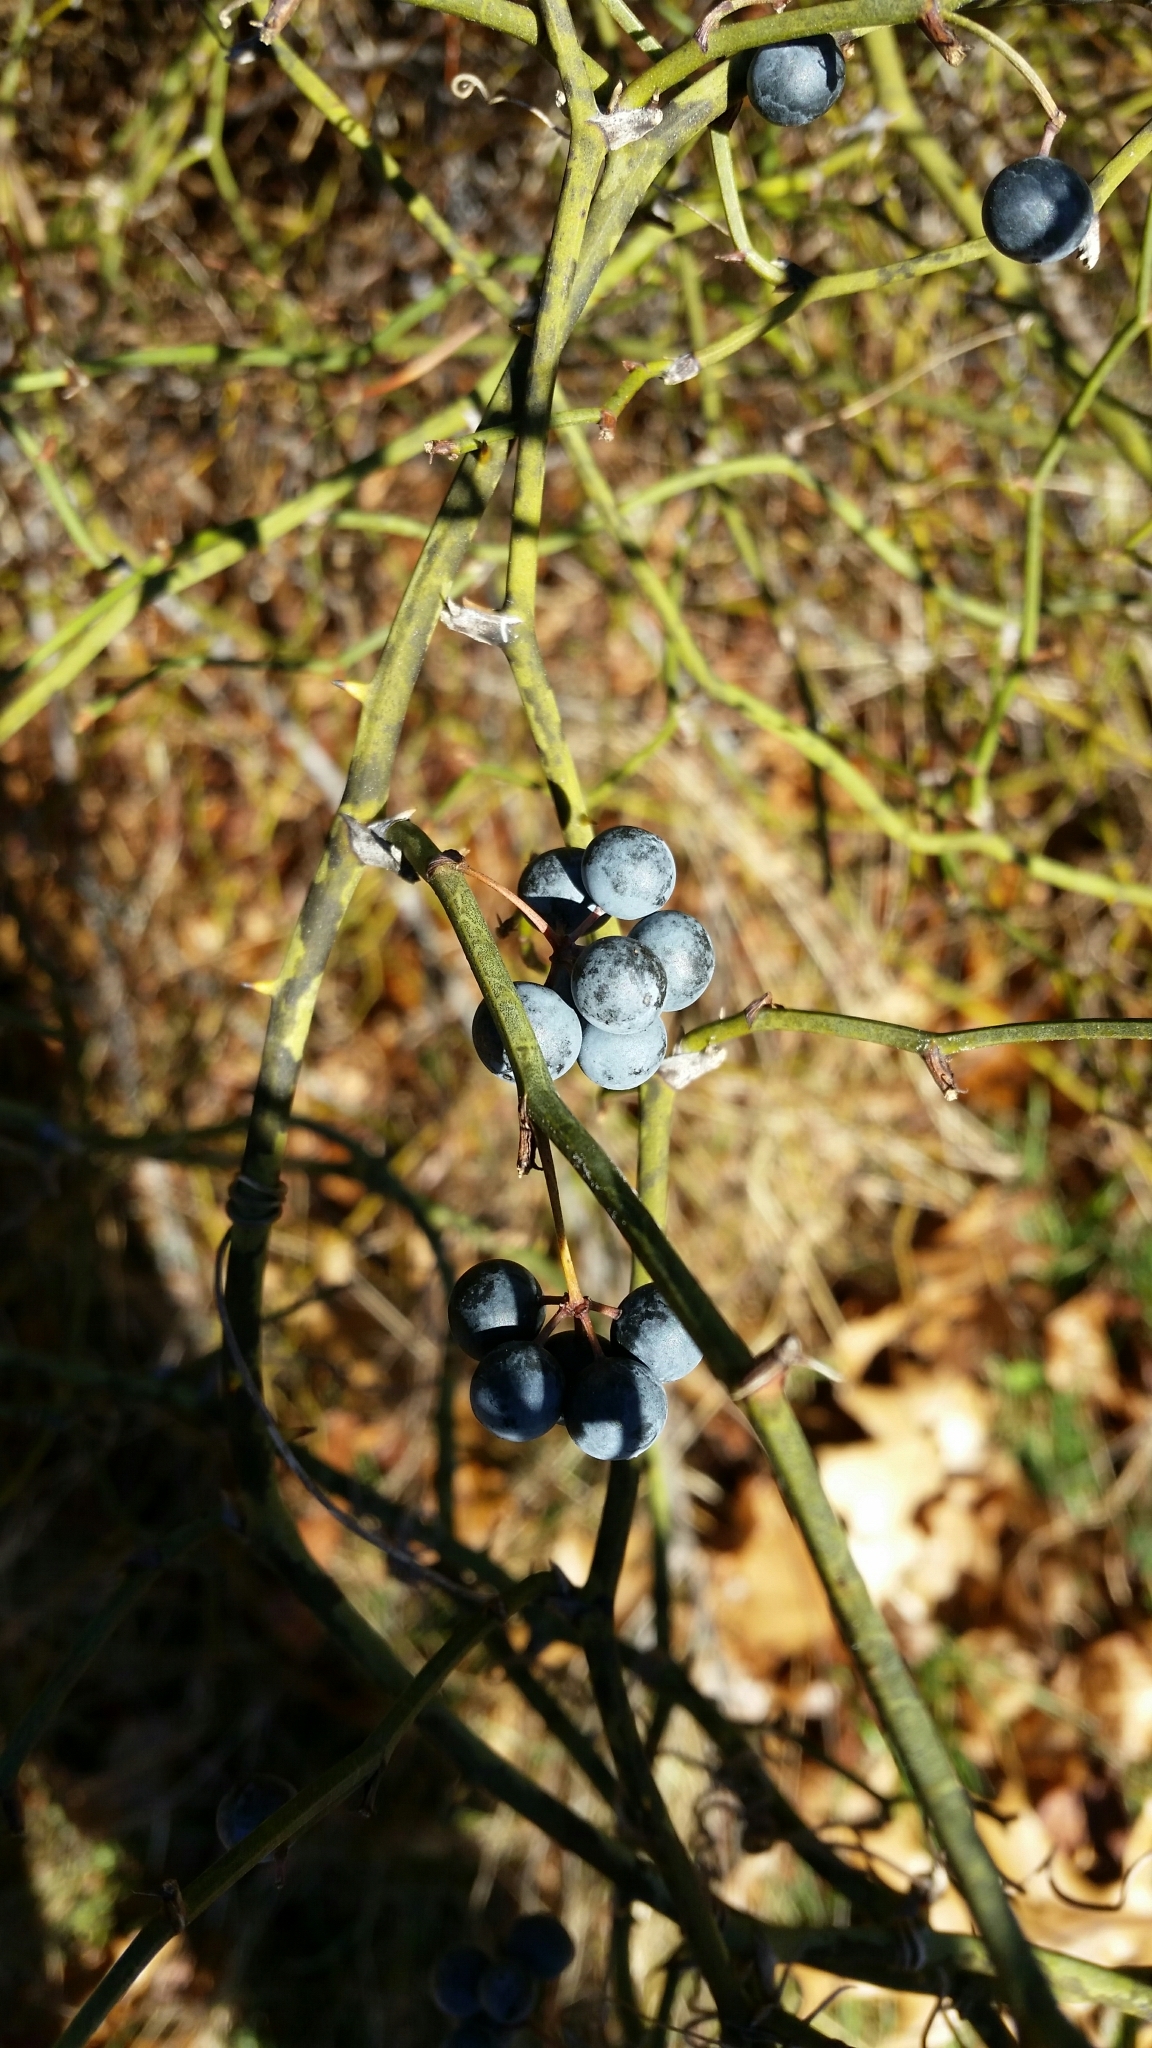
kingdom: Plantae
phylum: Tracheophyta
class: Liliopsida
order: Liliales
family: Smilacaceae
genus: Smilax
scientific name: Smilax rotundifolia
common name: Bullbriar
